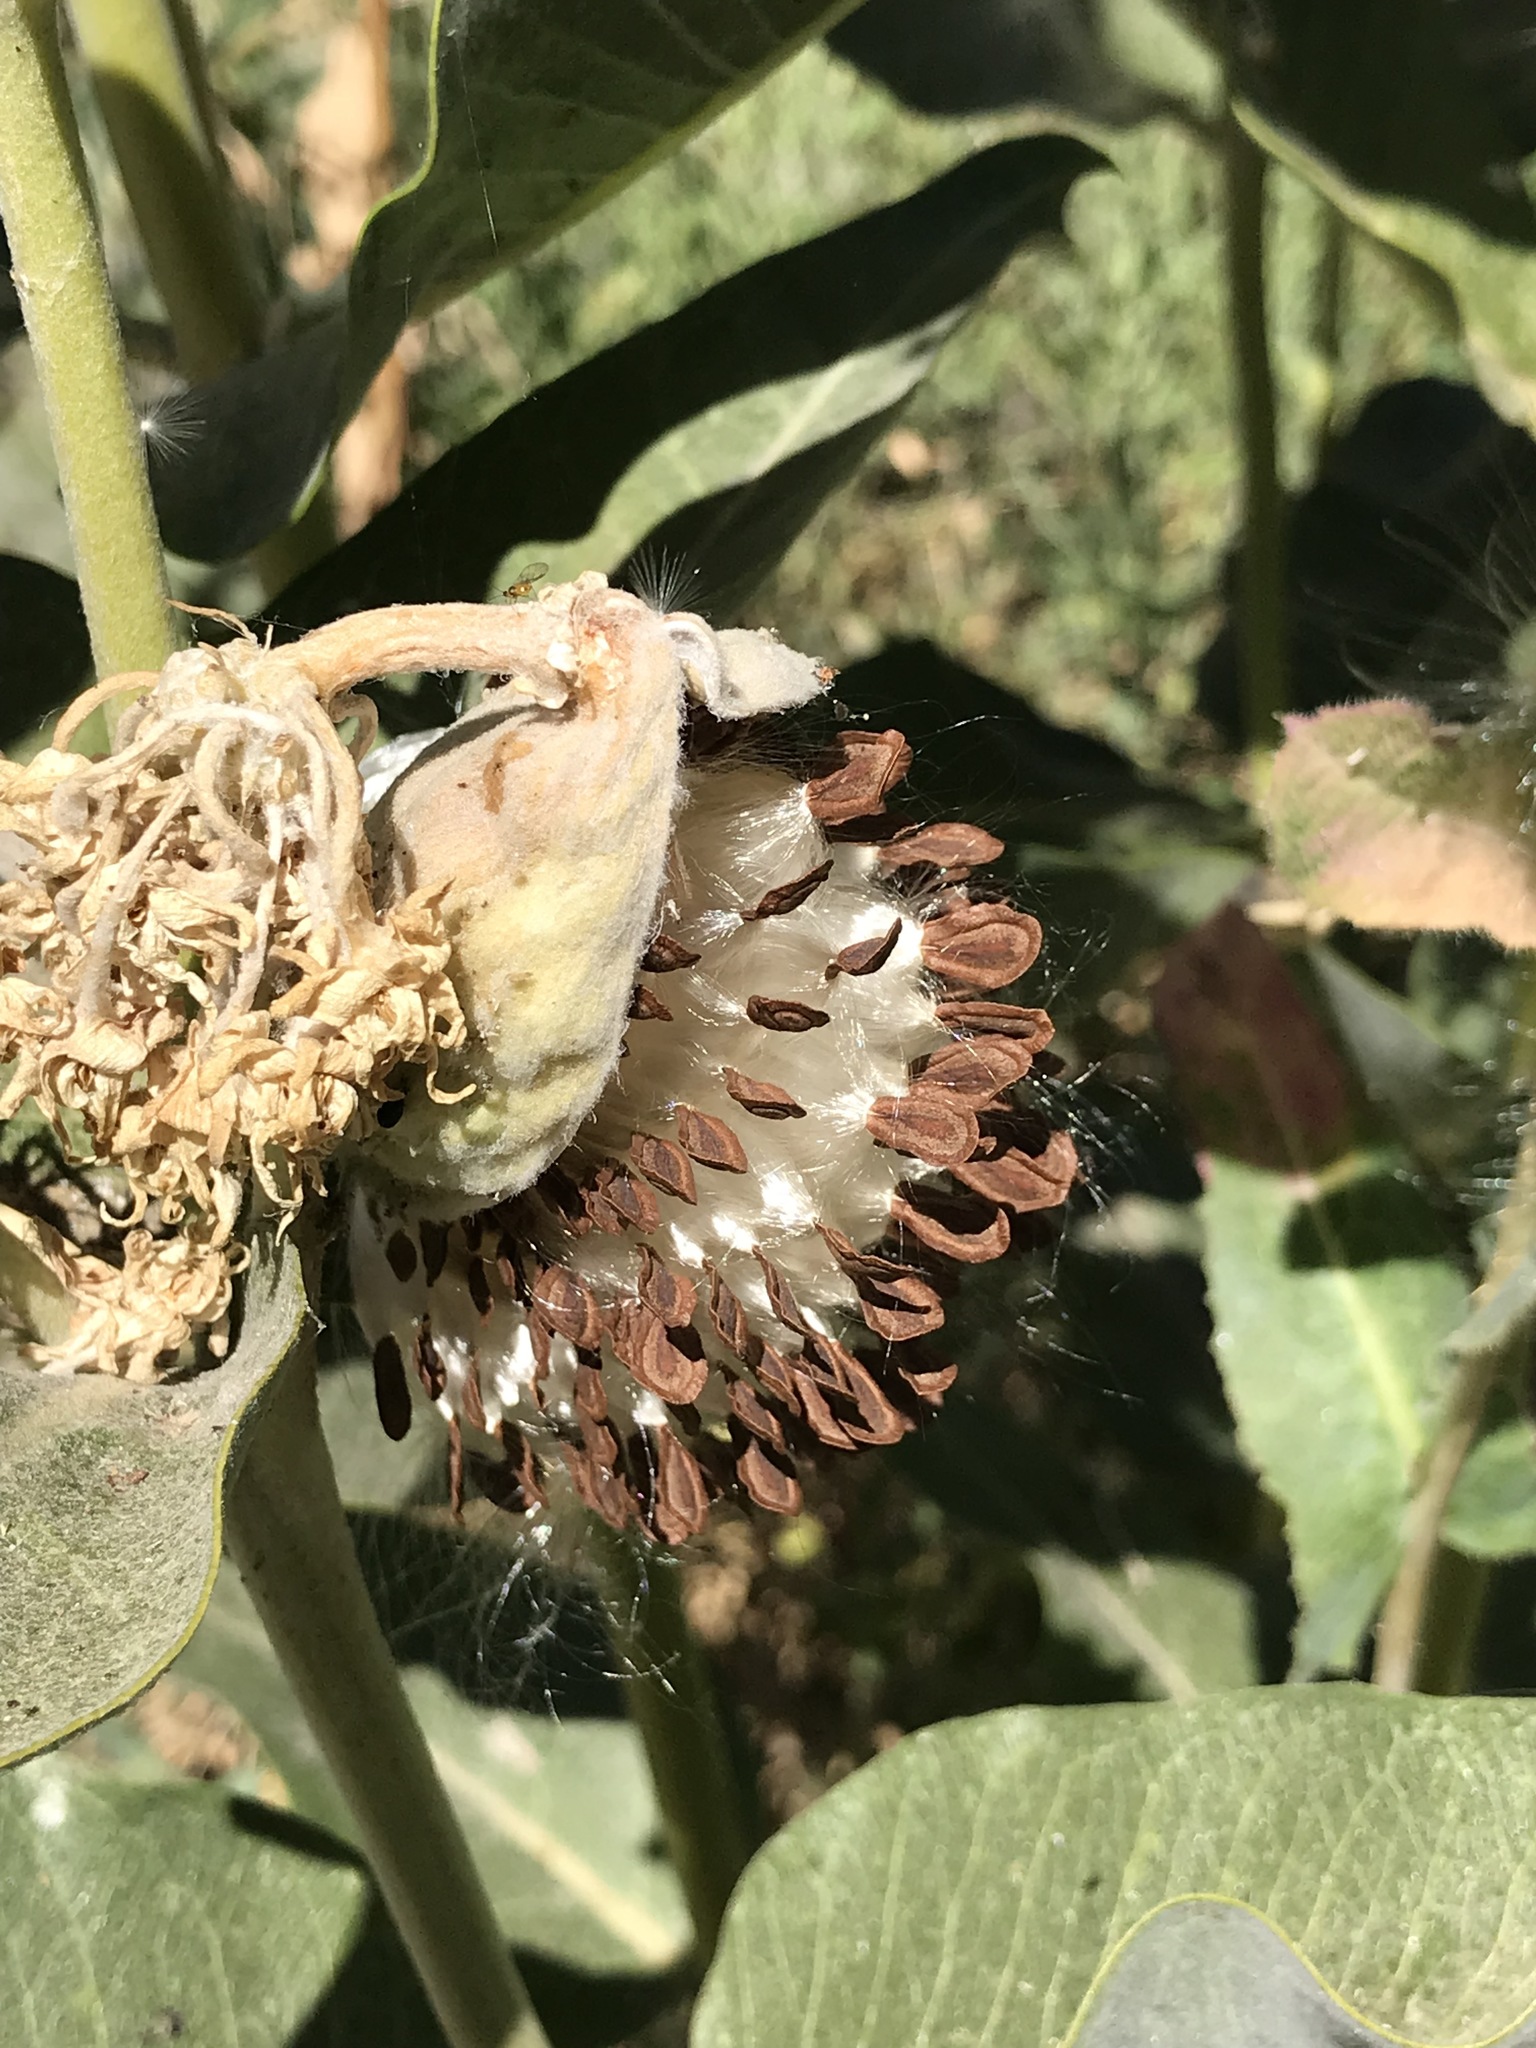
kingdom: Plantae
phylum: Tracheophyta
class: Magnoliopsida
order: Gentianales
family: Apocynaceae
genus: Asclepias
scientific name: Asclepias speciosa
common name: Showy milkweed
